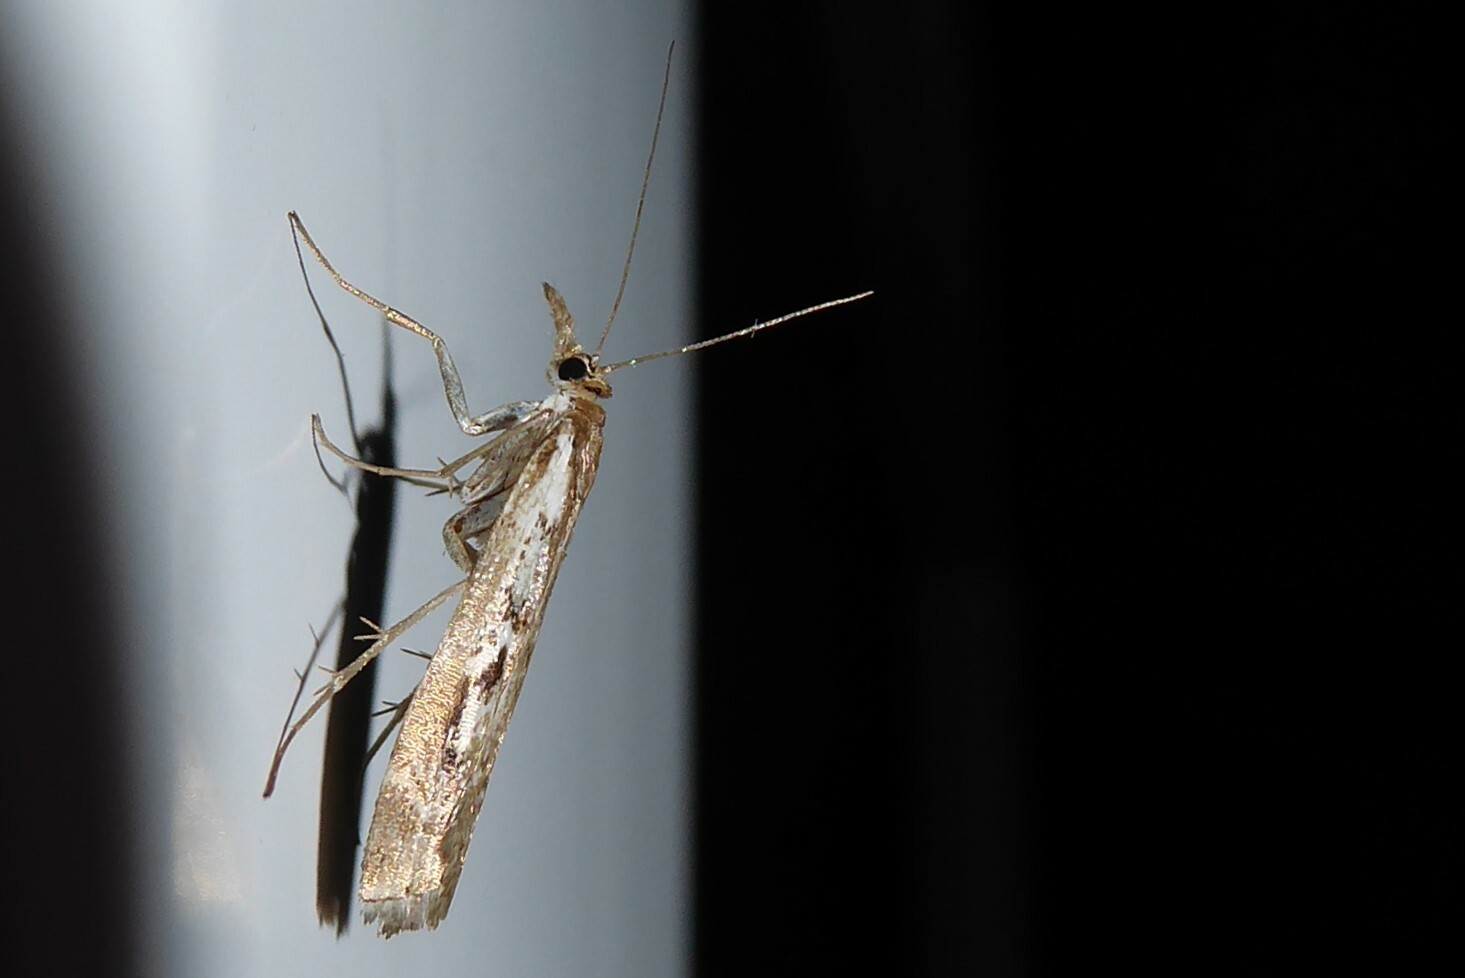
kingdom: Animalia
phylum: Arthropoda
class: Insecta
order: Lepidoptera
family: Crambidae
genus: Orocrambus
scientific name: Orocrambus vulgaris
